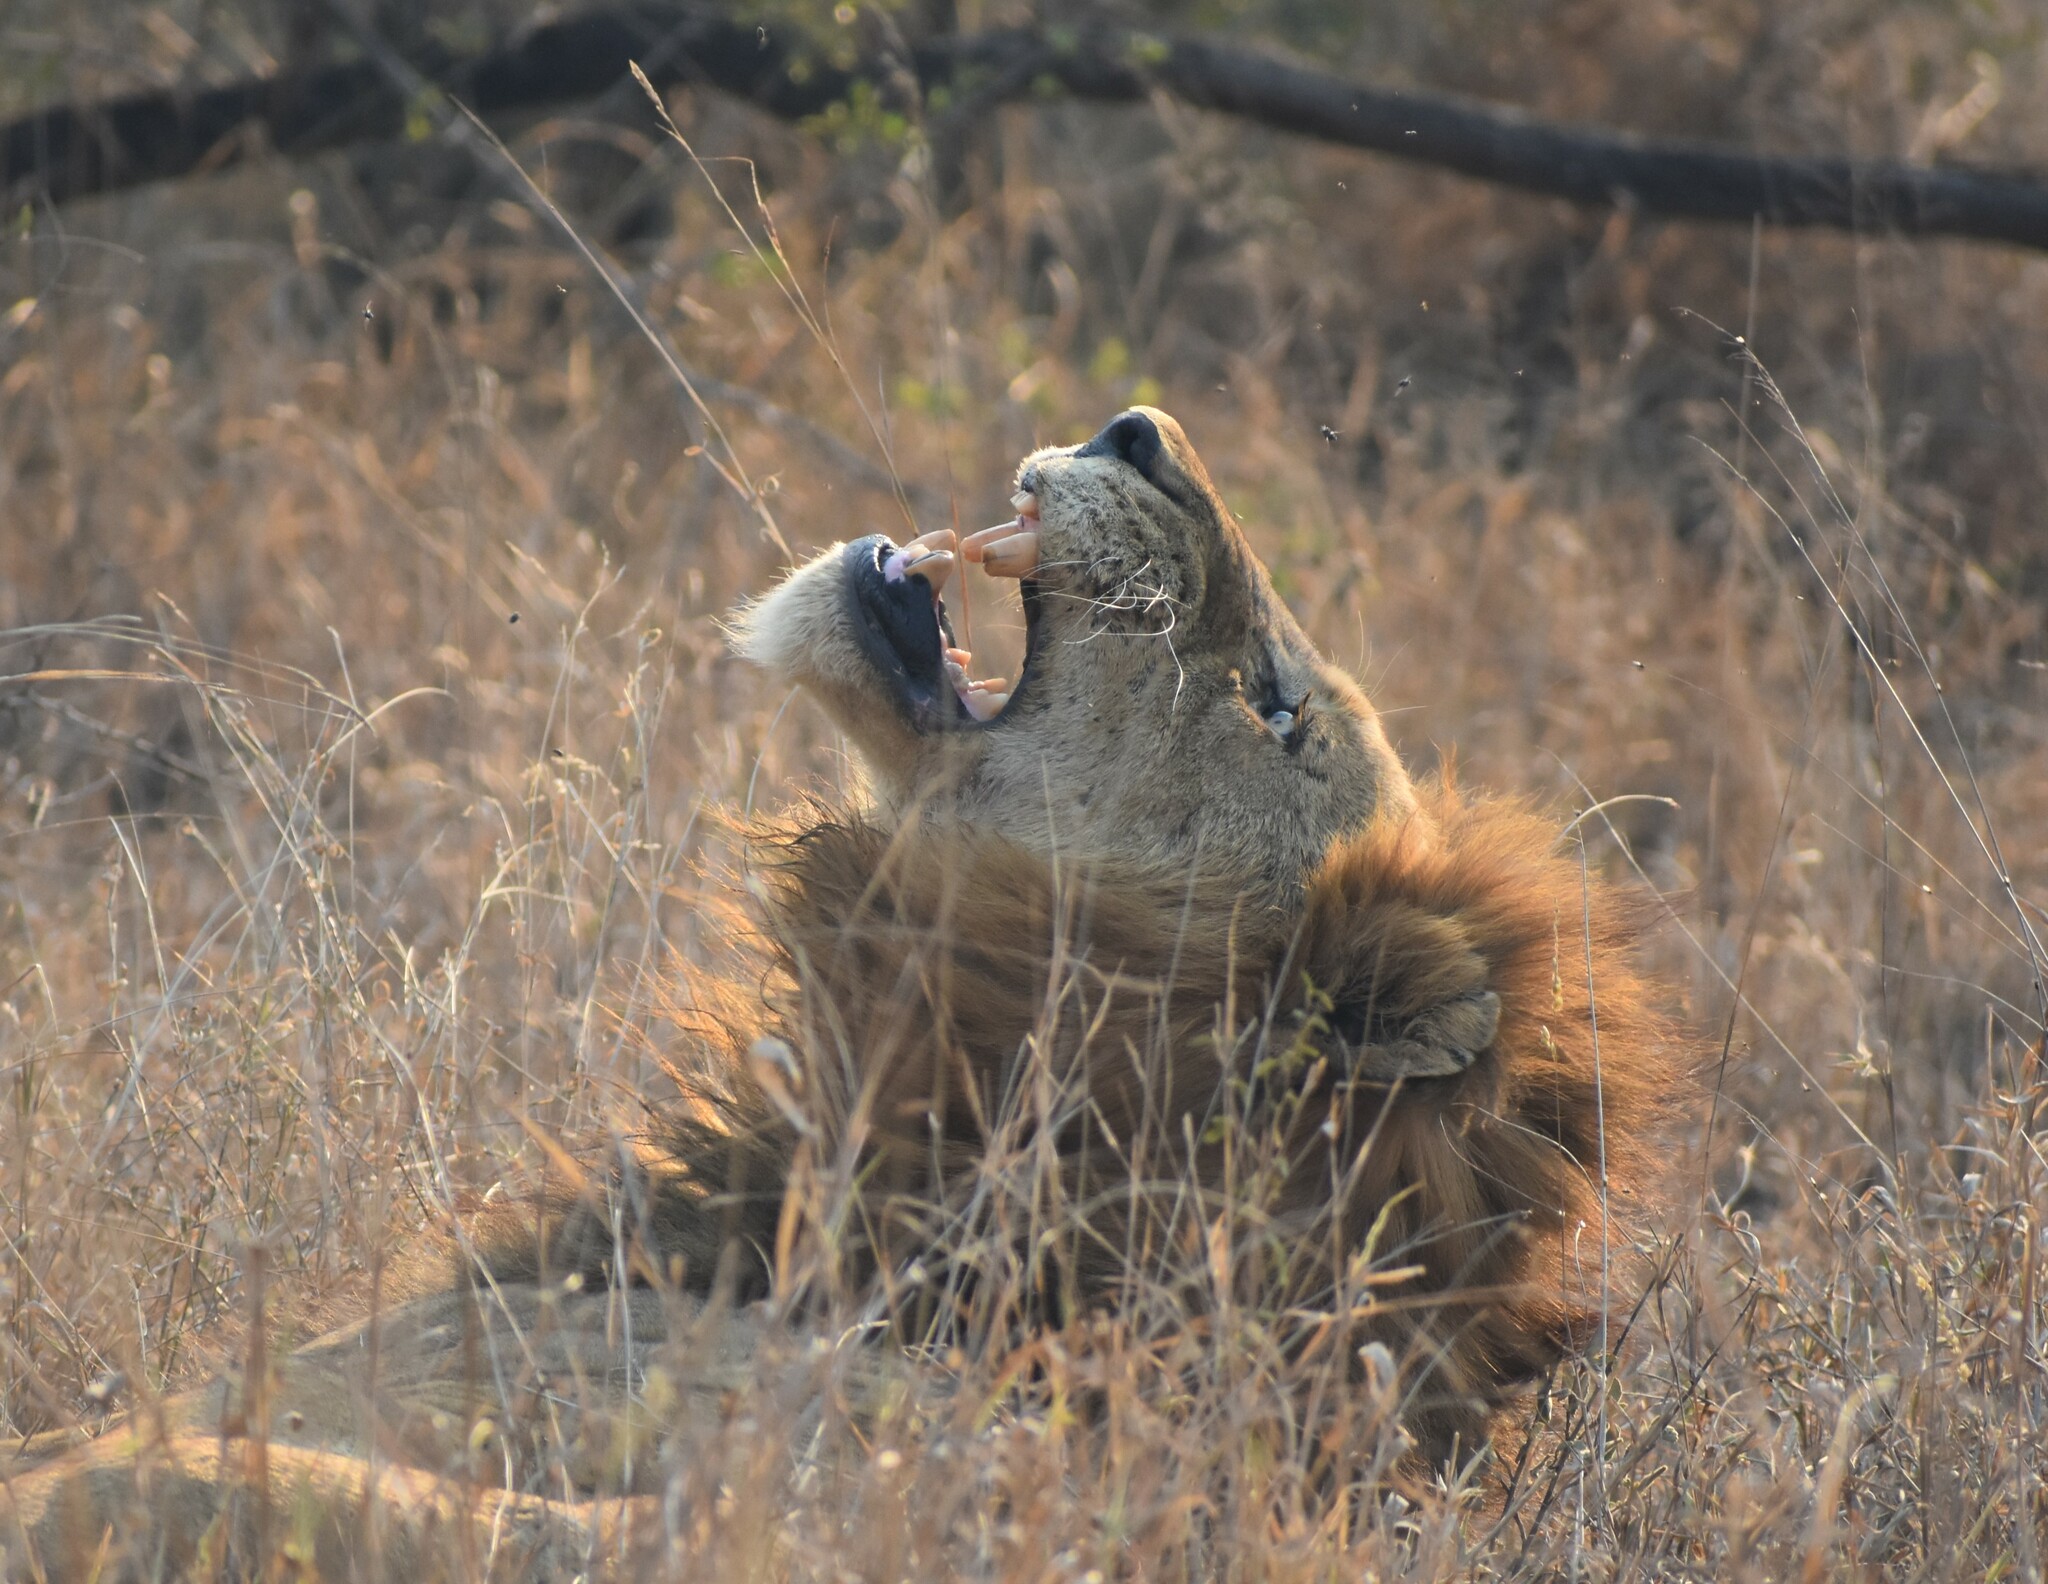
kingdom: Animalia
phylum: Chordata
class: Mammalia
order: Carnivora
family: Felidae
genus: Panthera
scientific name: Panthera leo
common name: Lion
